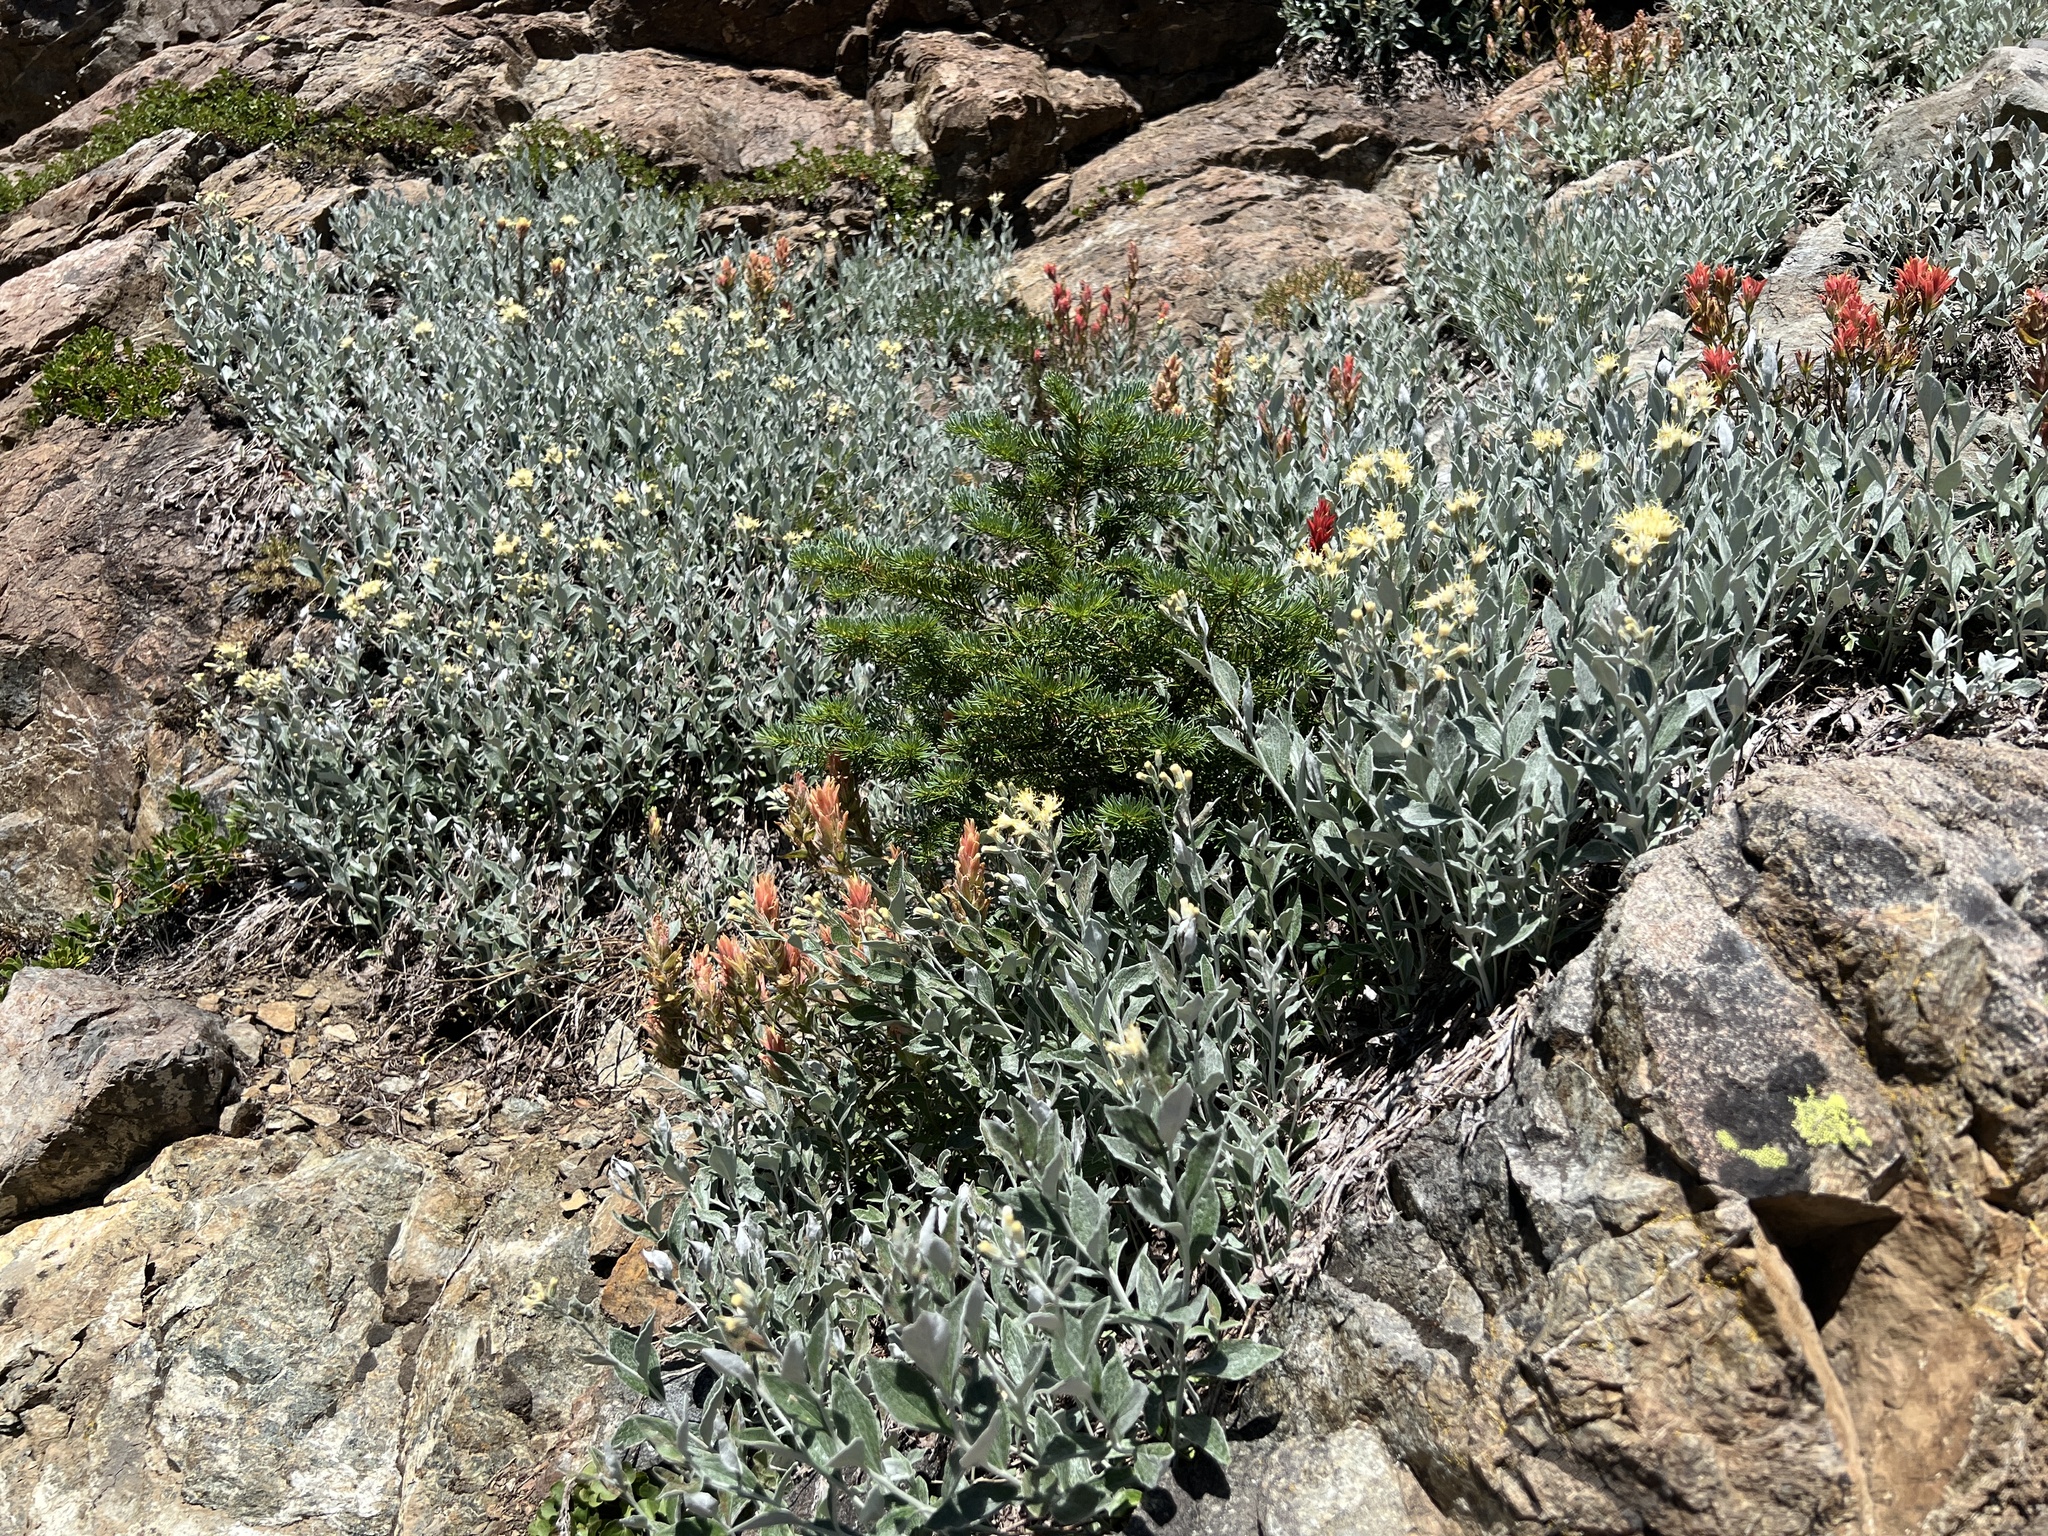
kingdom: Plantae
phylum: Tracheophyta
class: Magnoliopsida
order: Asterales
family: Asteraceae
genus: Luina
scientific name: Luina hypoleuca
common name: Little-leaved luina
